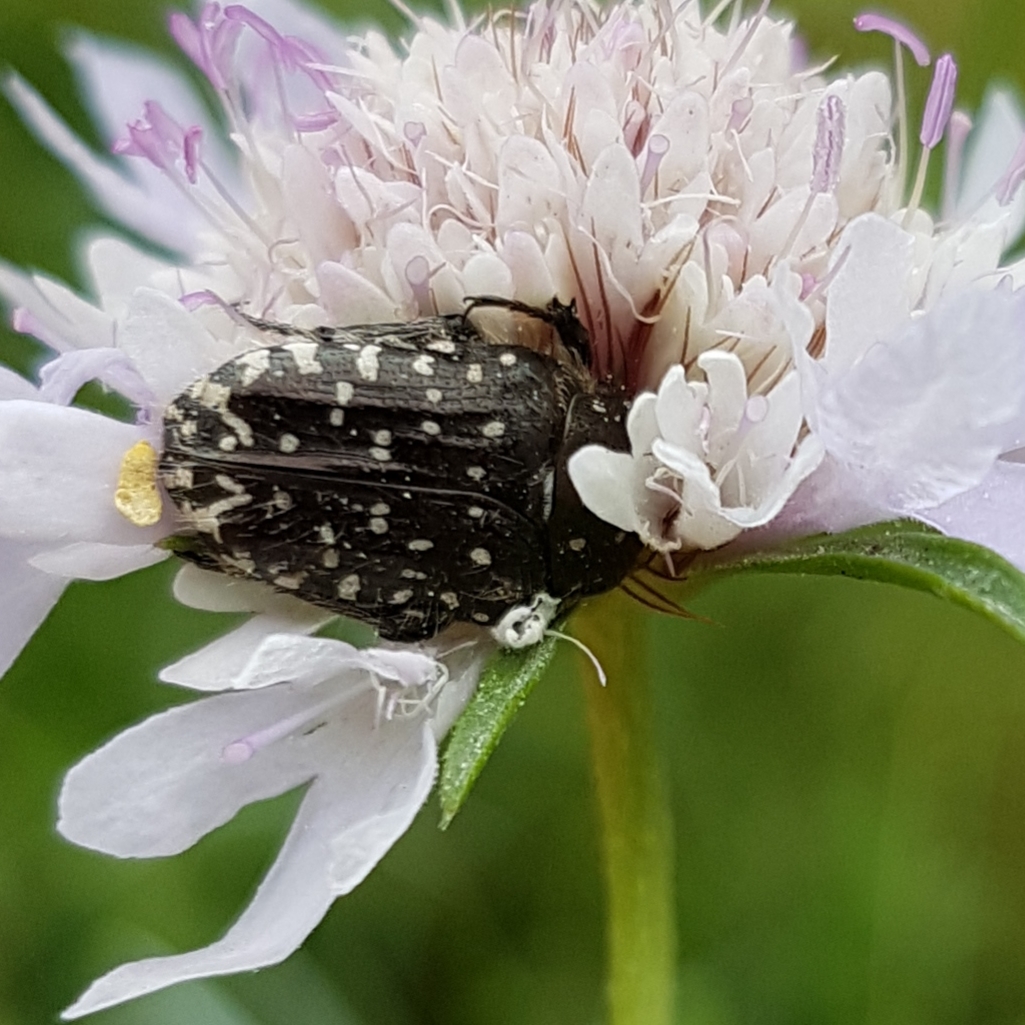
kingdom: Animalia
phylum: Arthropoda
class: Insecta
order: Coleoptera
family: Scarabaeidae
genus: Oxythyrea
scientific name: Oxythyrea funesta
